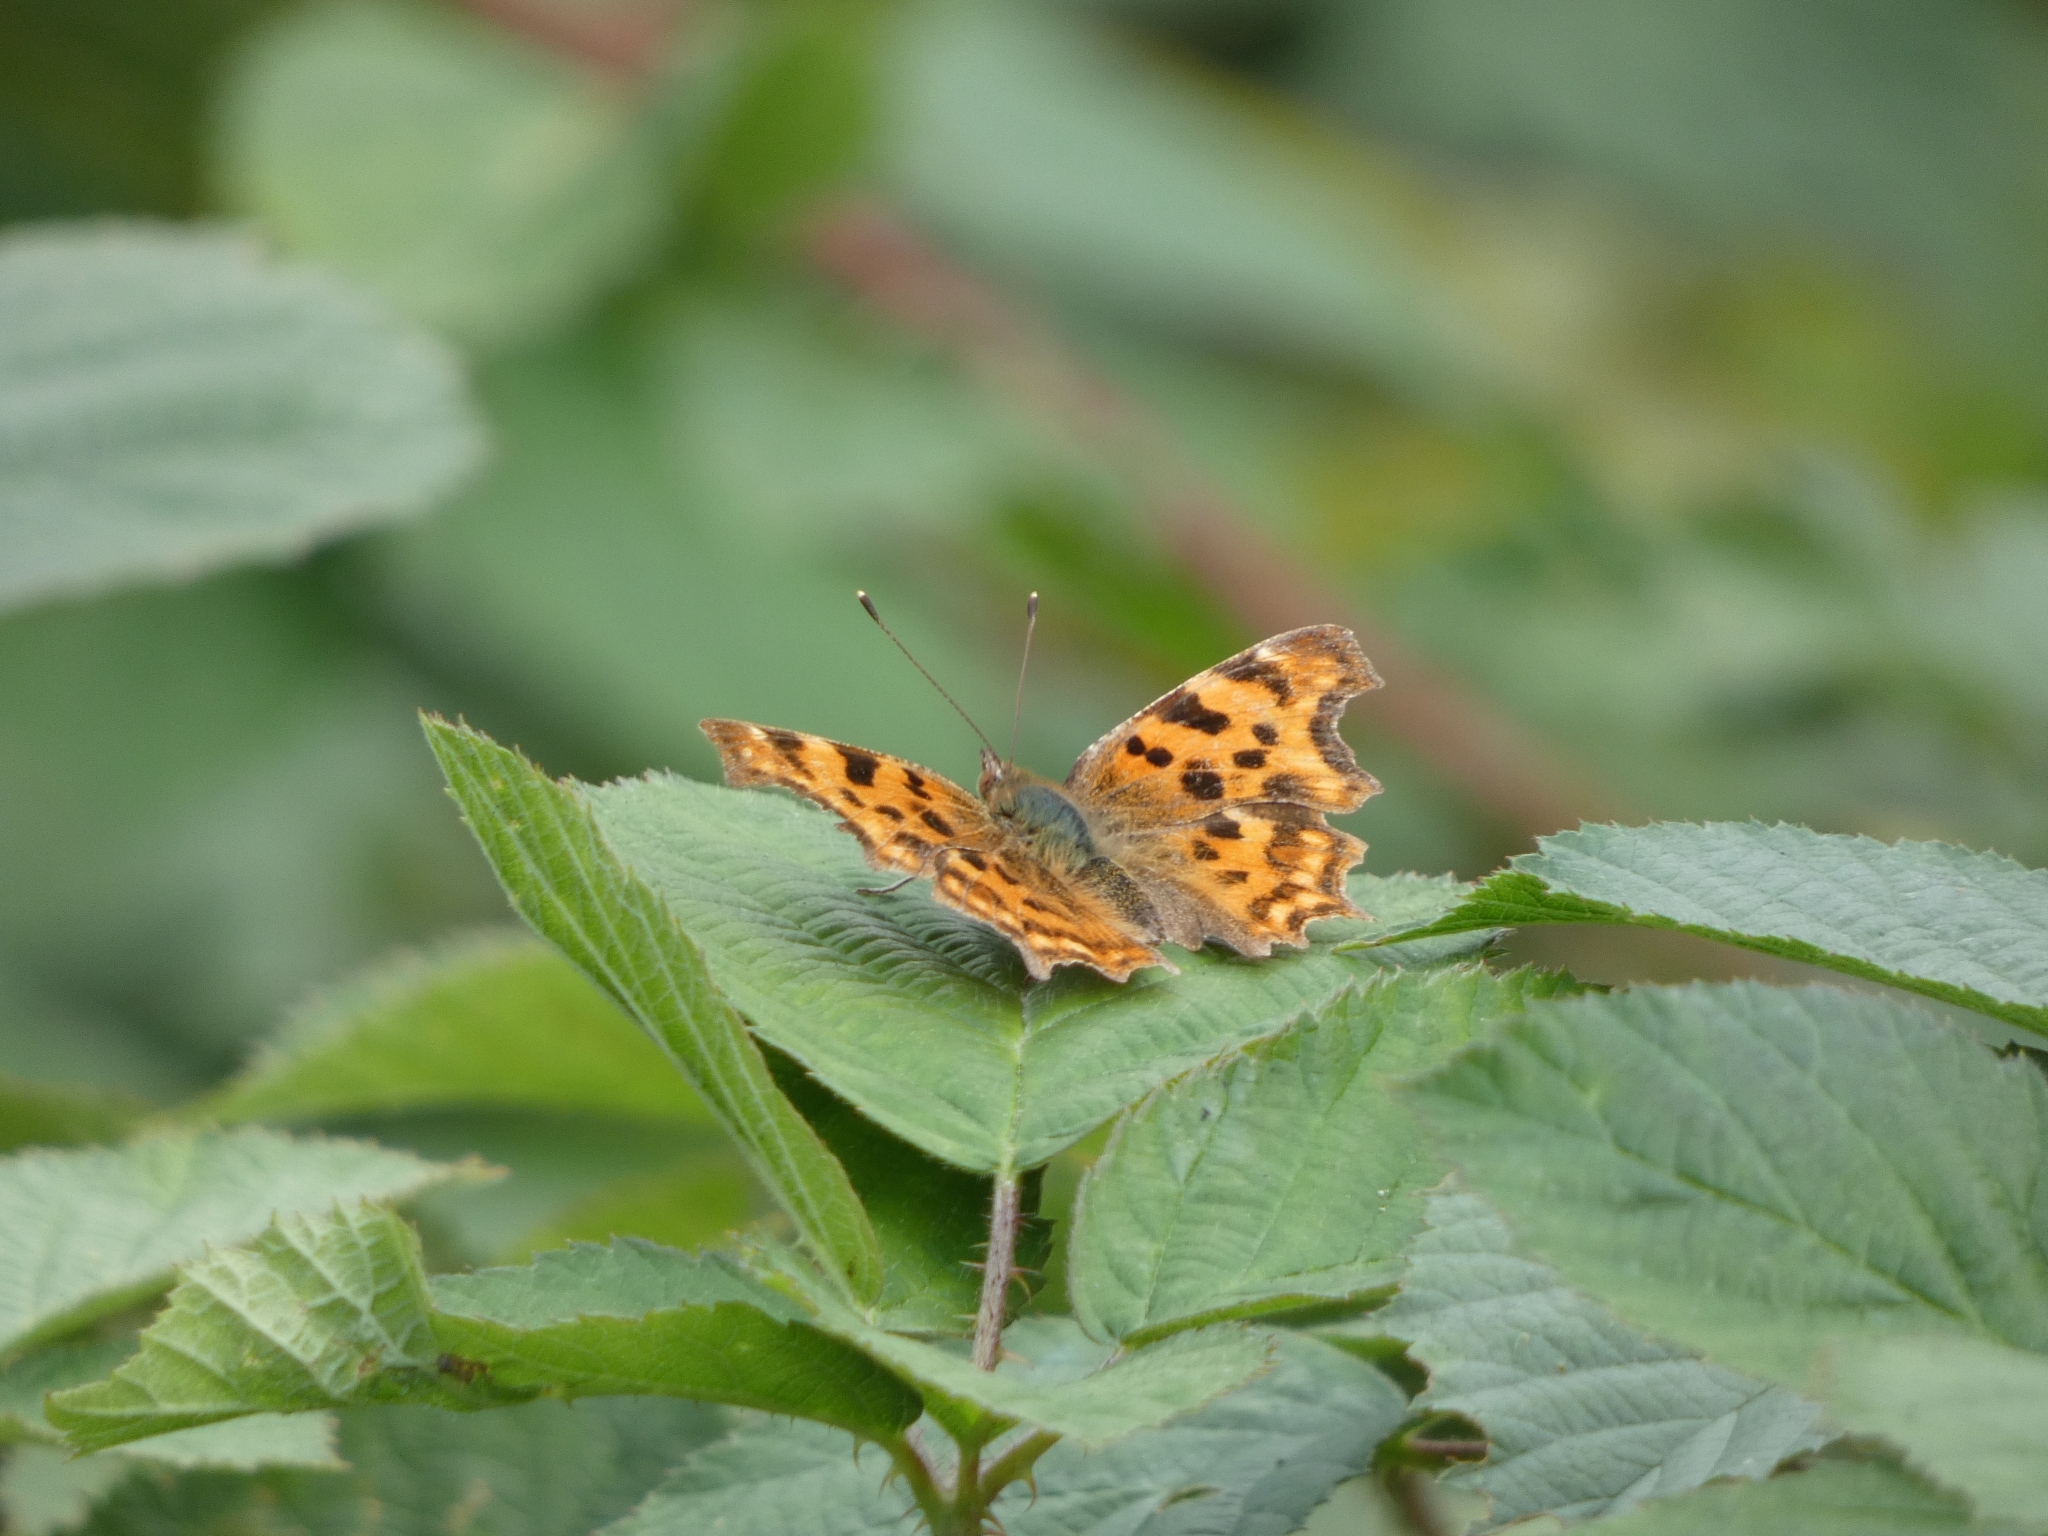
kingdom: Animalia
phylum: Arthropoda
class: Insecta
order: Lepidoptera
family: Nymphalidae
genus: Polygonia
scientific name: Polygonia c-album
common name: Comma
